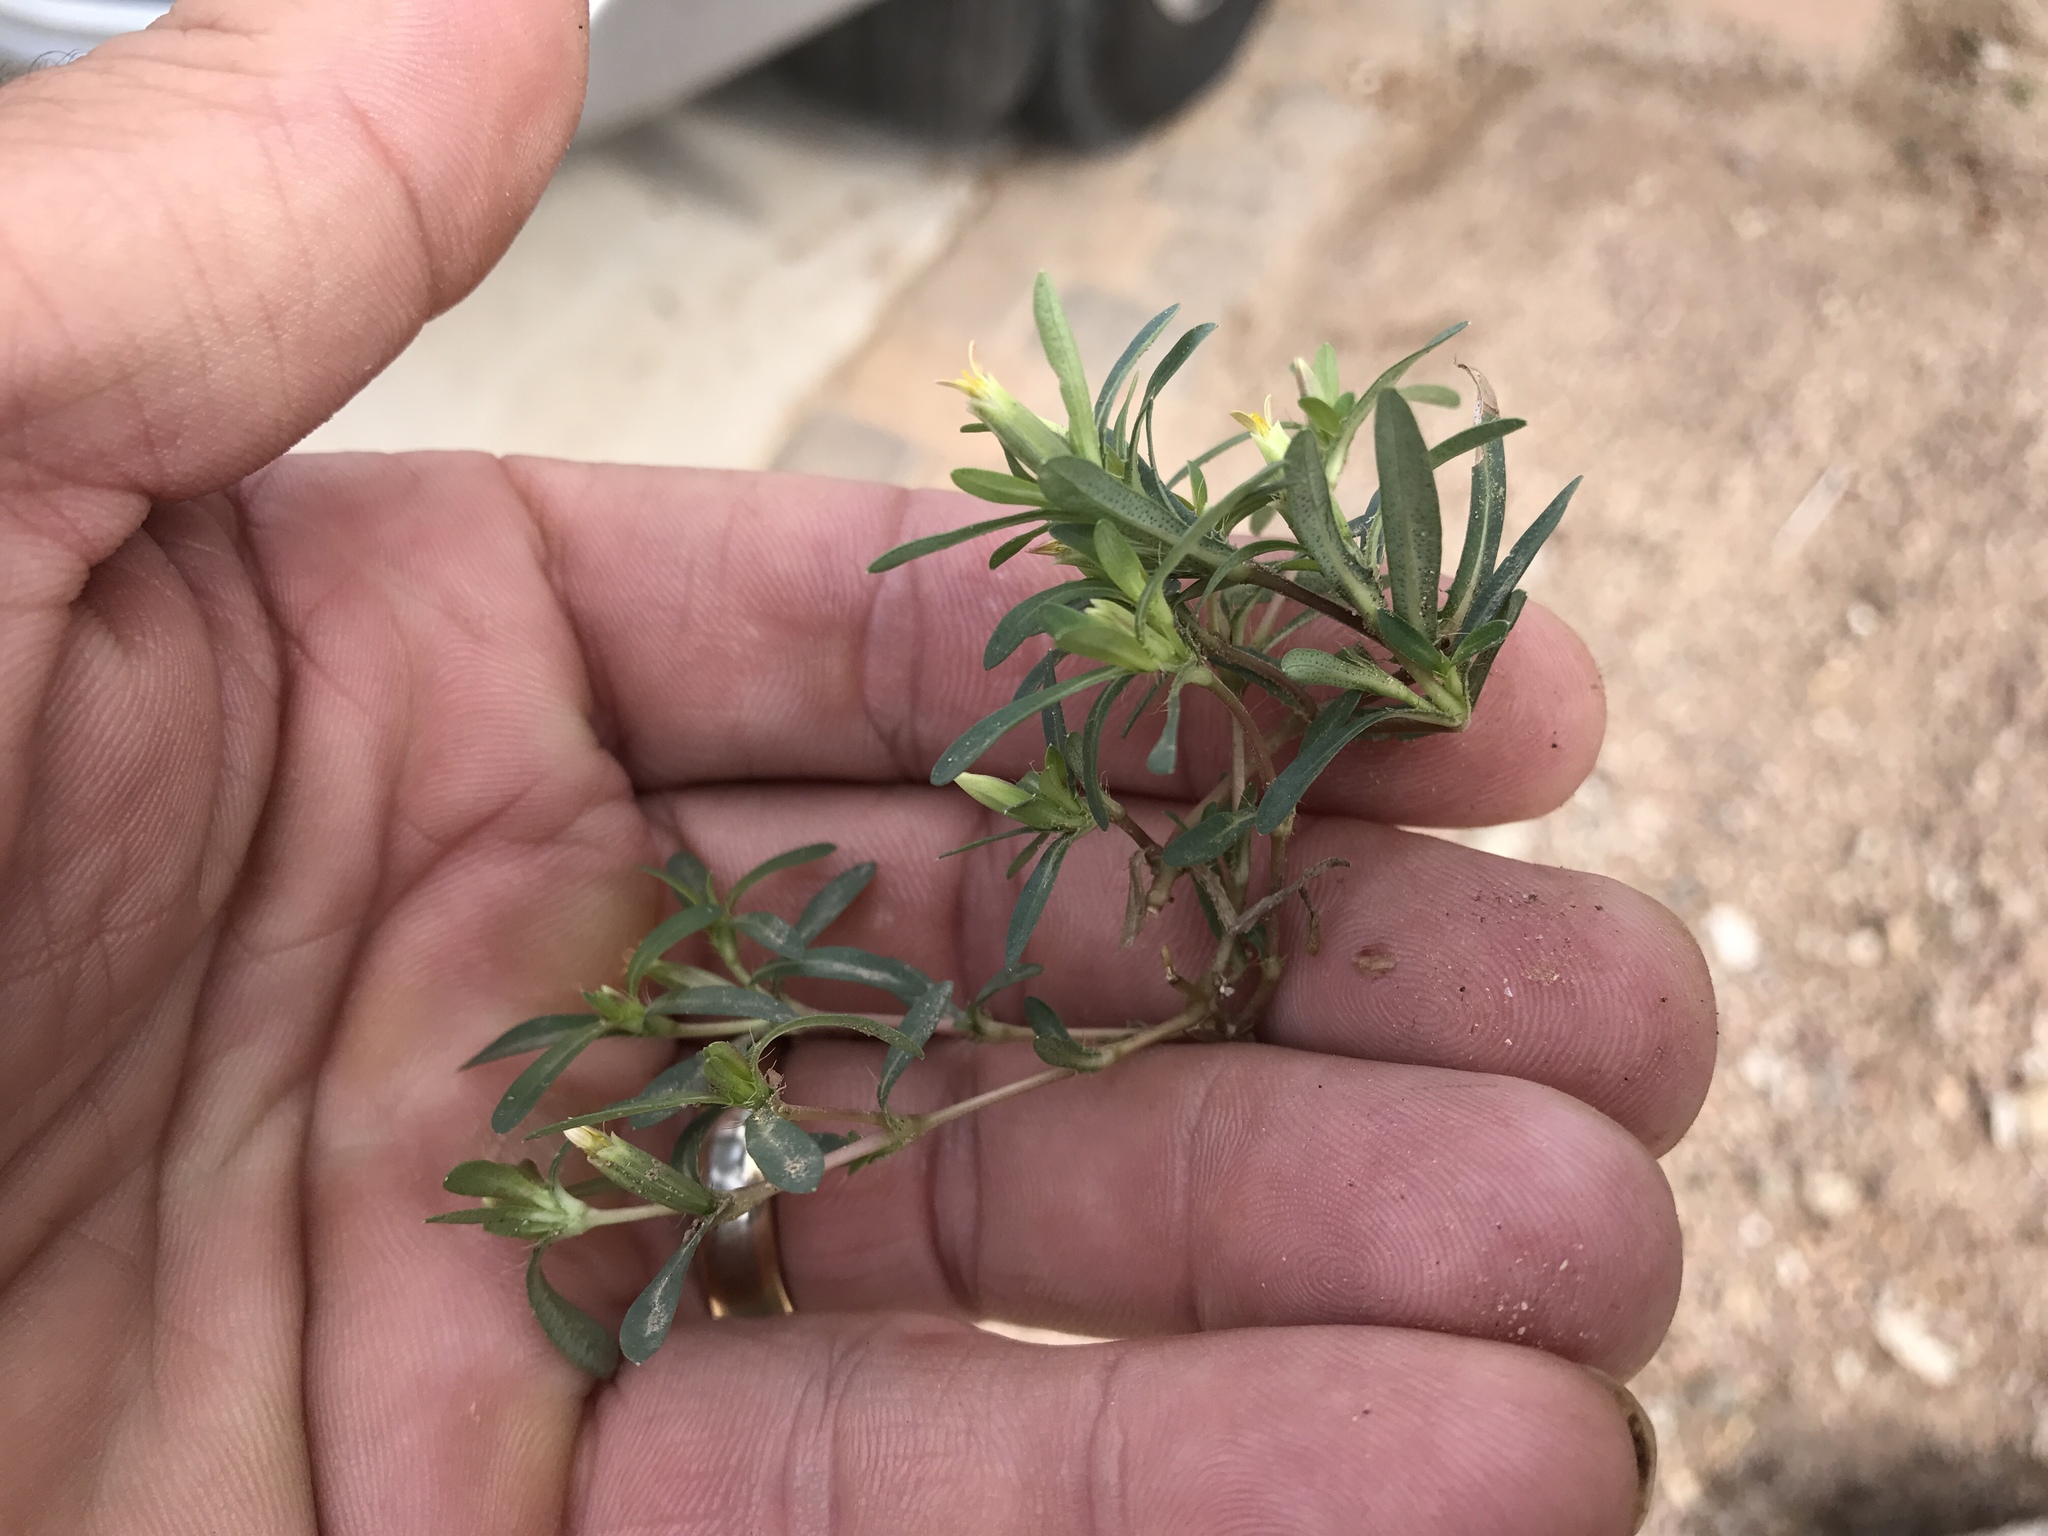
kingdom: Plantae
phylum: Tracheophyta
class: Magnoliopsida
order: Asterales
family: Asteraceae
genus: Pectis
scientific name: Pectis cylindrica
